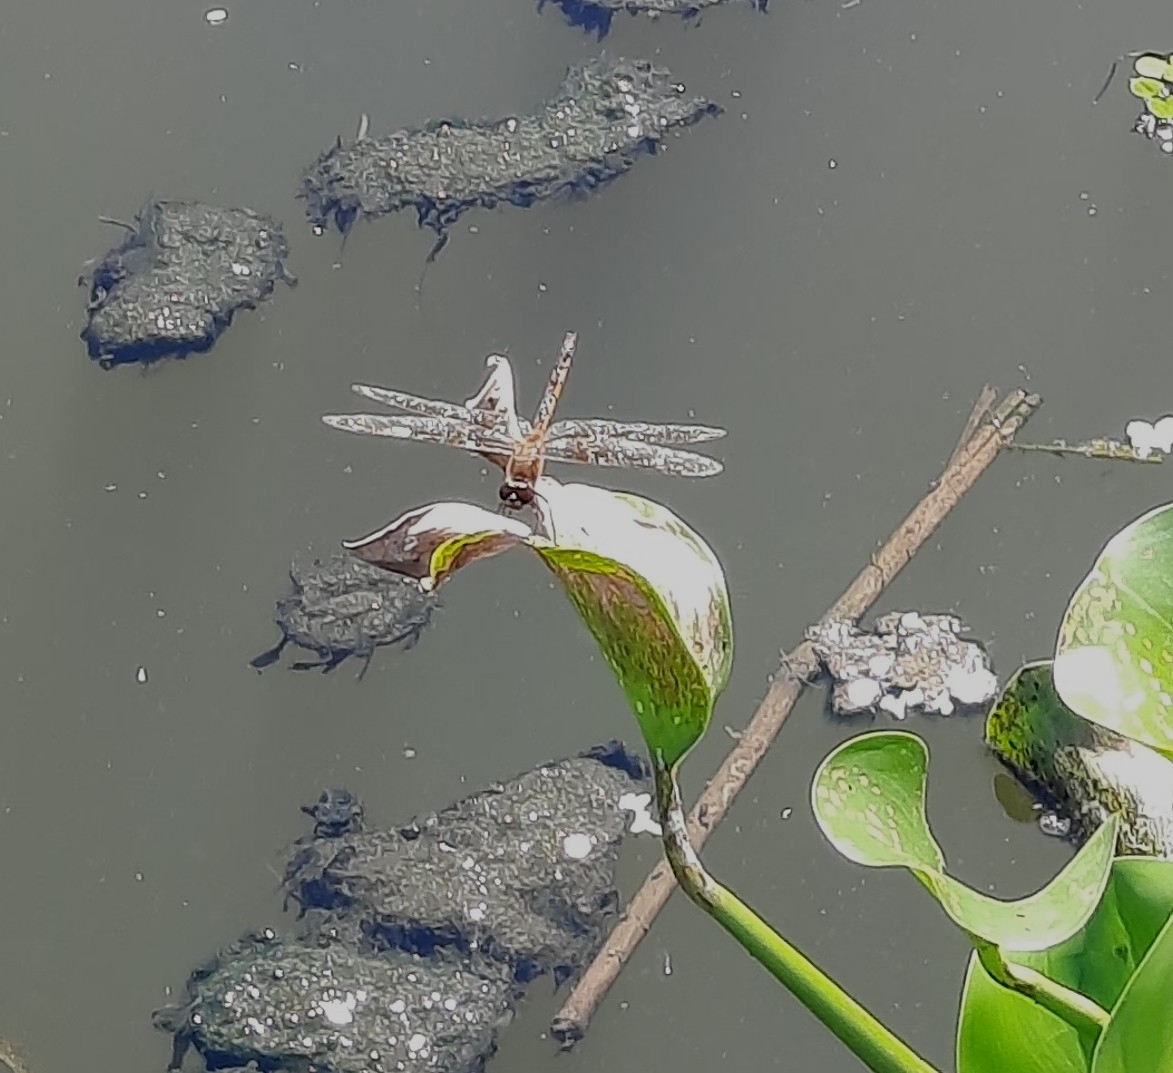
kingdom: Animalia
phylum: Arthropoda
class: Insecta
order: Odonata
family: Libellulidae
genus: Brachymesia
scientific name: Brachymesia herbida
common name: Tawny pennant
